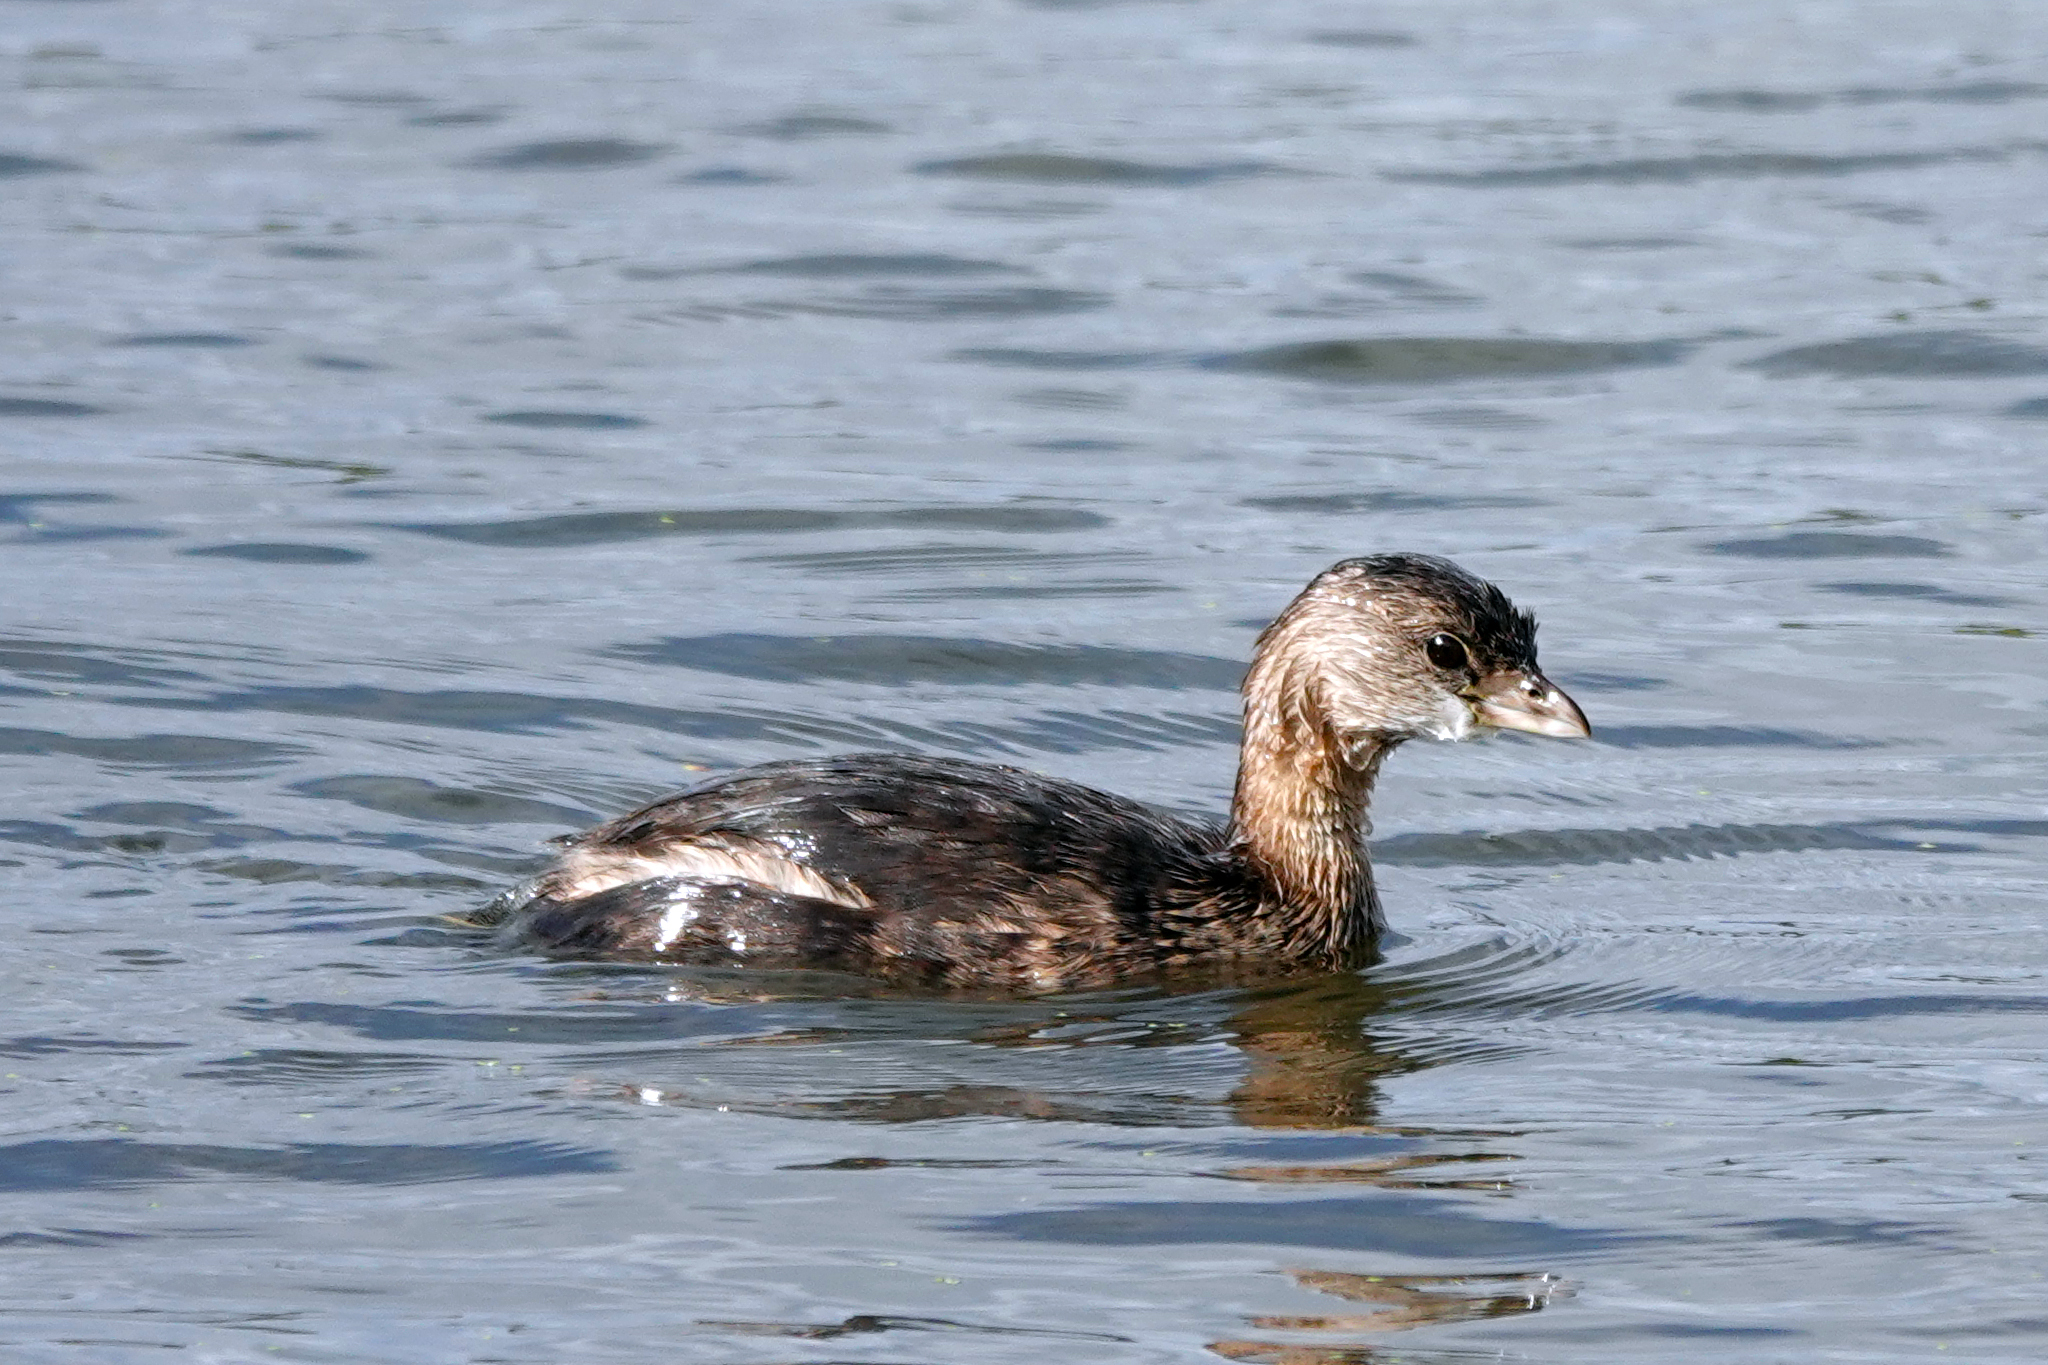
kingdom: Animalia
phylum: Chordata
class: Aves
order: Podicipediformes
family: Podicipedidae
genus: Podilymbus
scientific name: Podilymbus podiceps
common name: Pied-billed grebe
